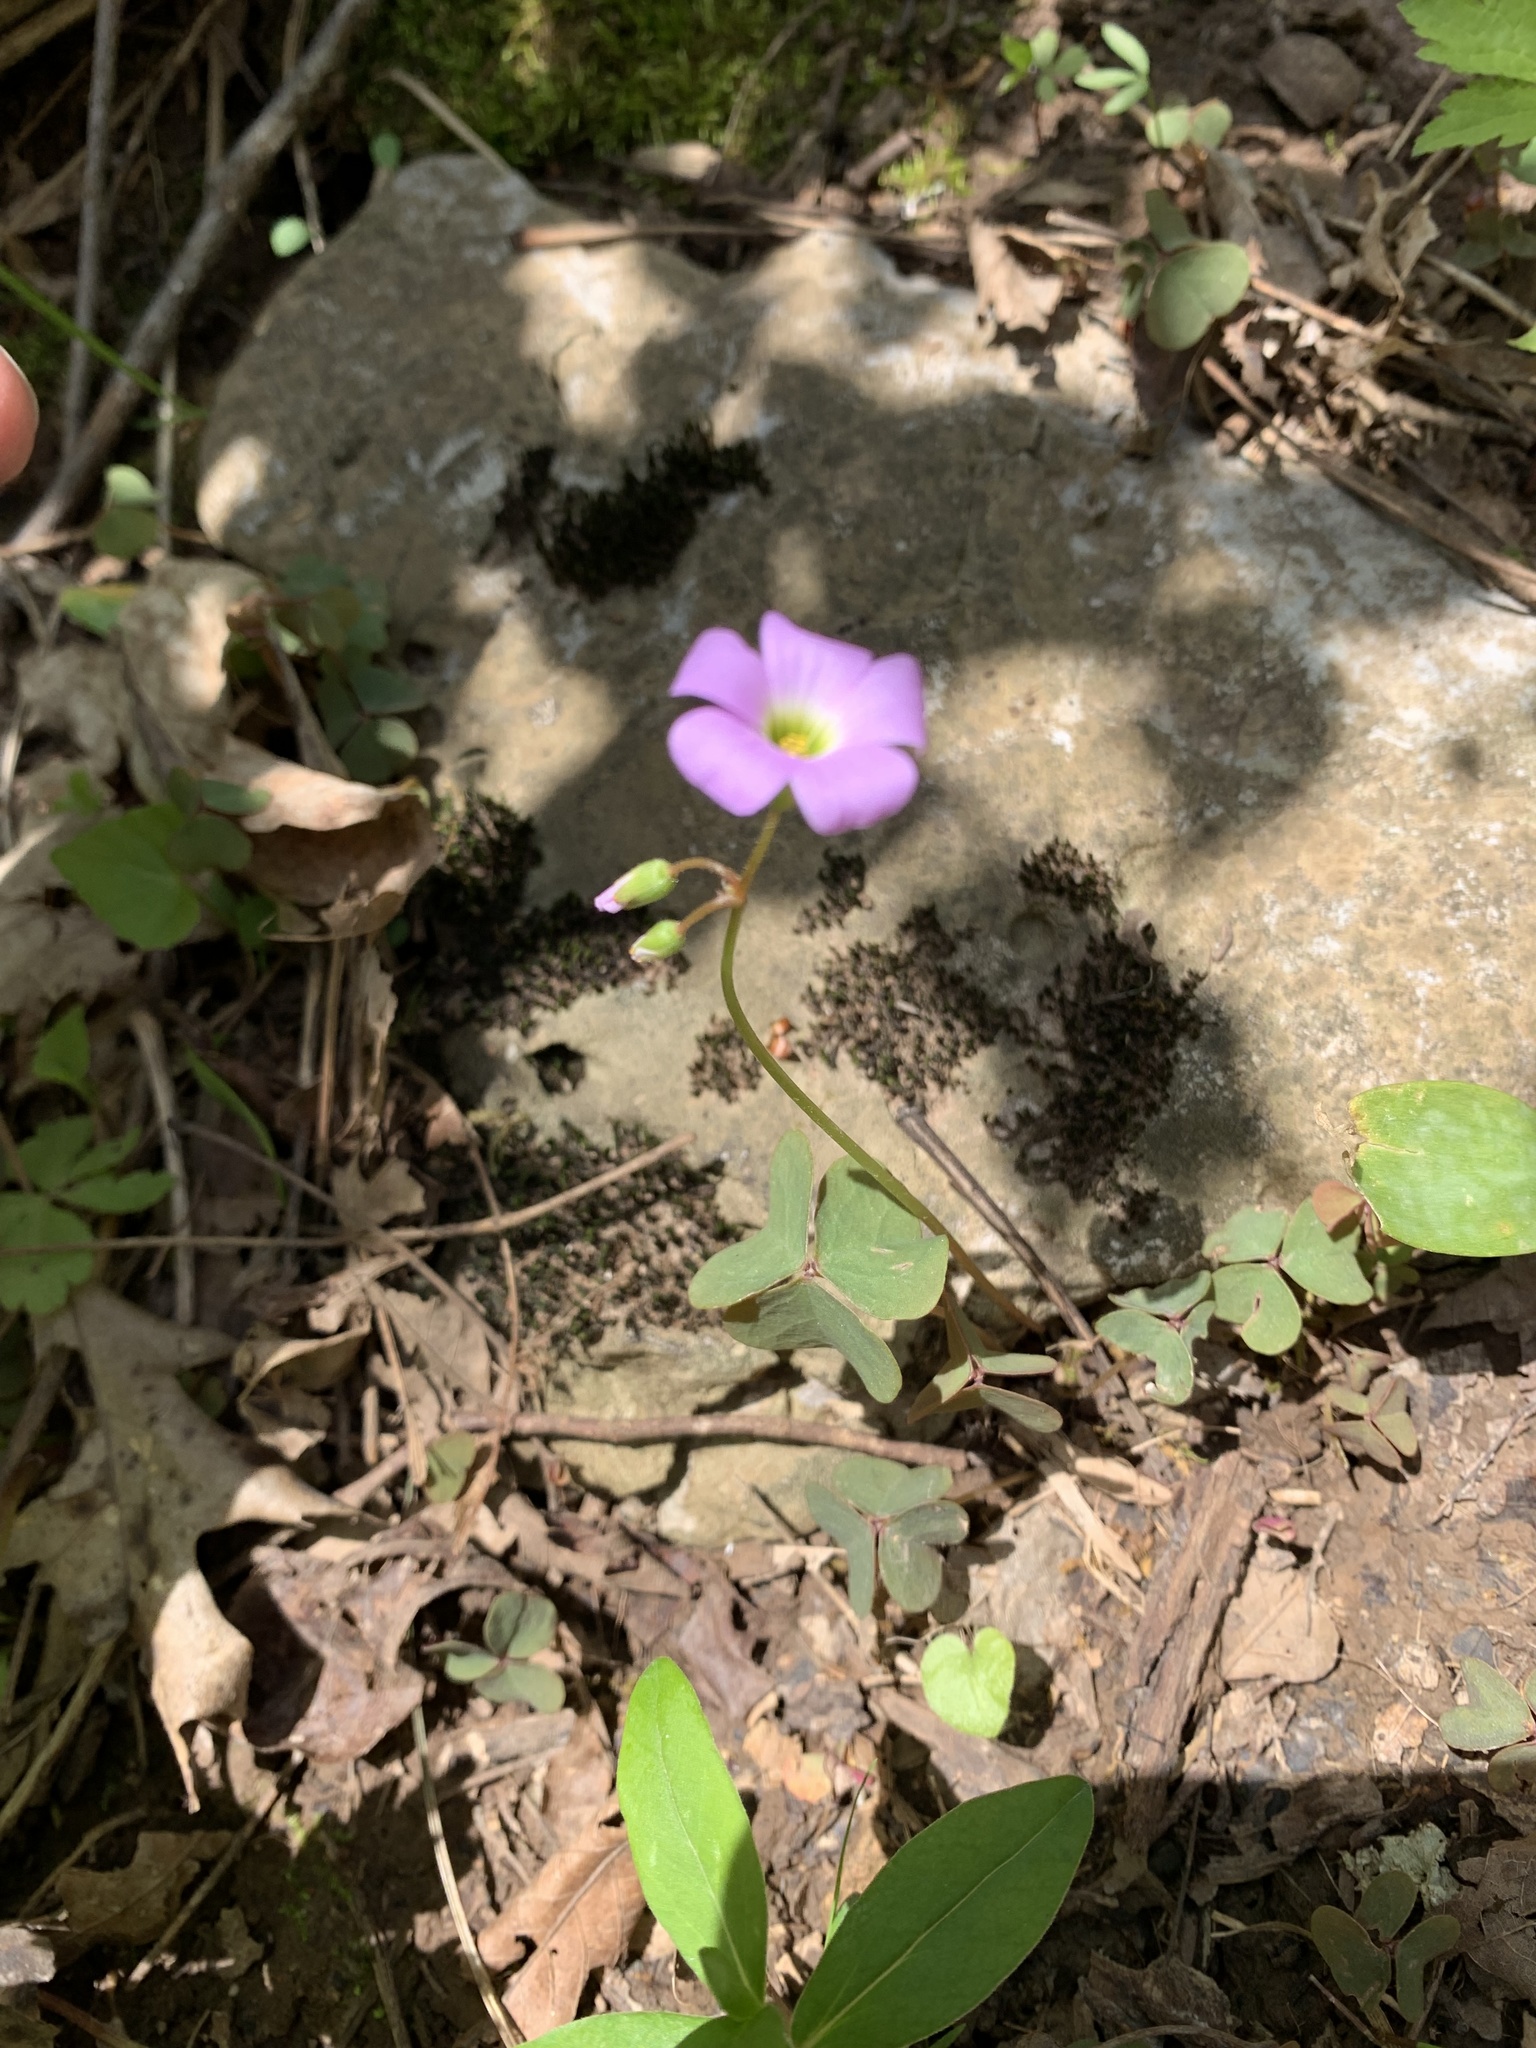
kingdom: Plantae
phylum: Tracheophyta
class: Magnoliopsida
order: Oxalidales
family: Oxalidaceae
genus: Oxalis
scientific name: Oxalis violacea
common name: Violet wood-sorrel
